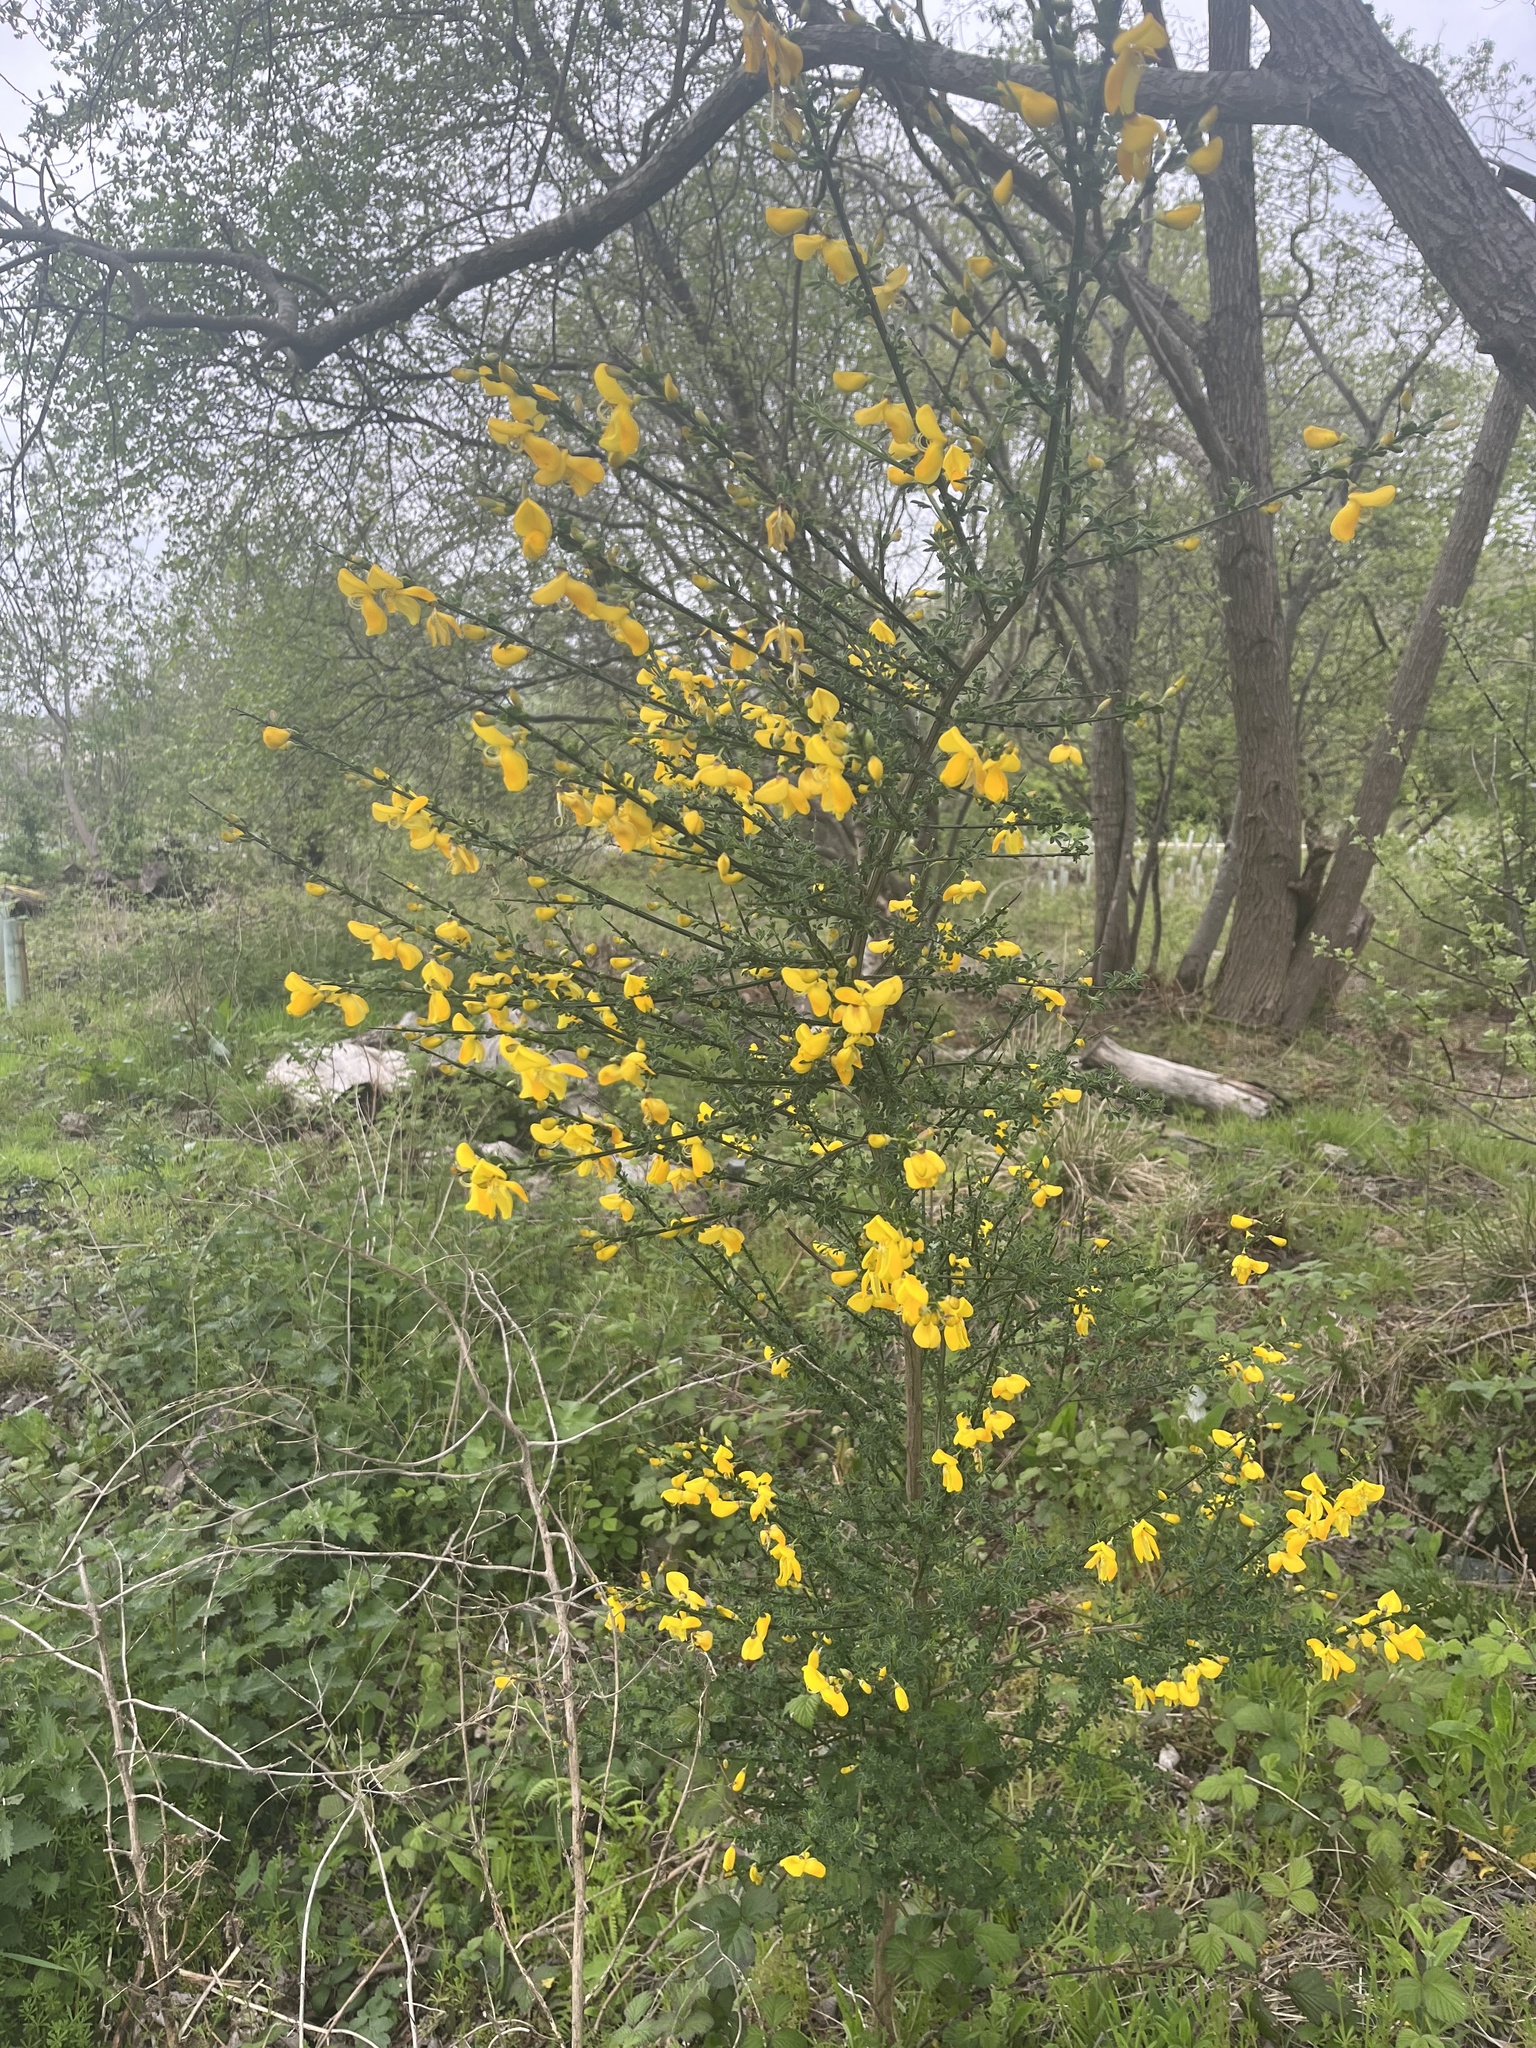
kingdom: Plantae
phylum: Tracheophyta
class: Magnoliopsida
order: Fabales
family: Fabaceae
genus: Cytisus
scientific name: Cytisus scoparius
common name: Scotch broom
